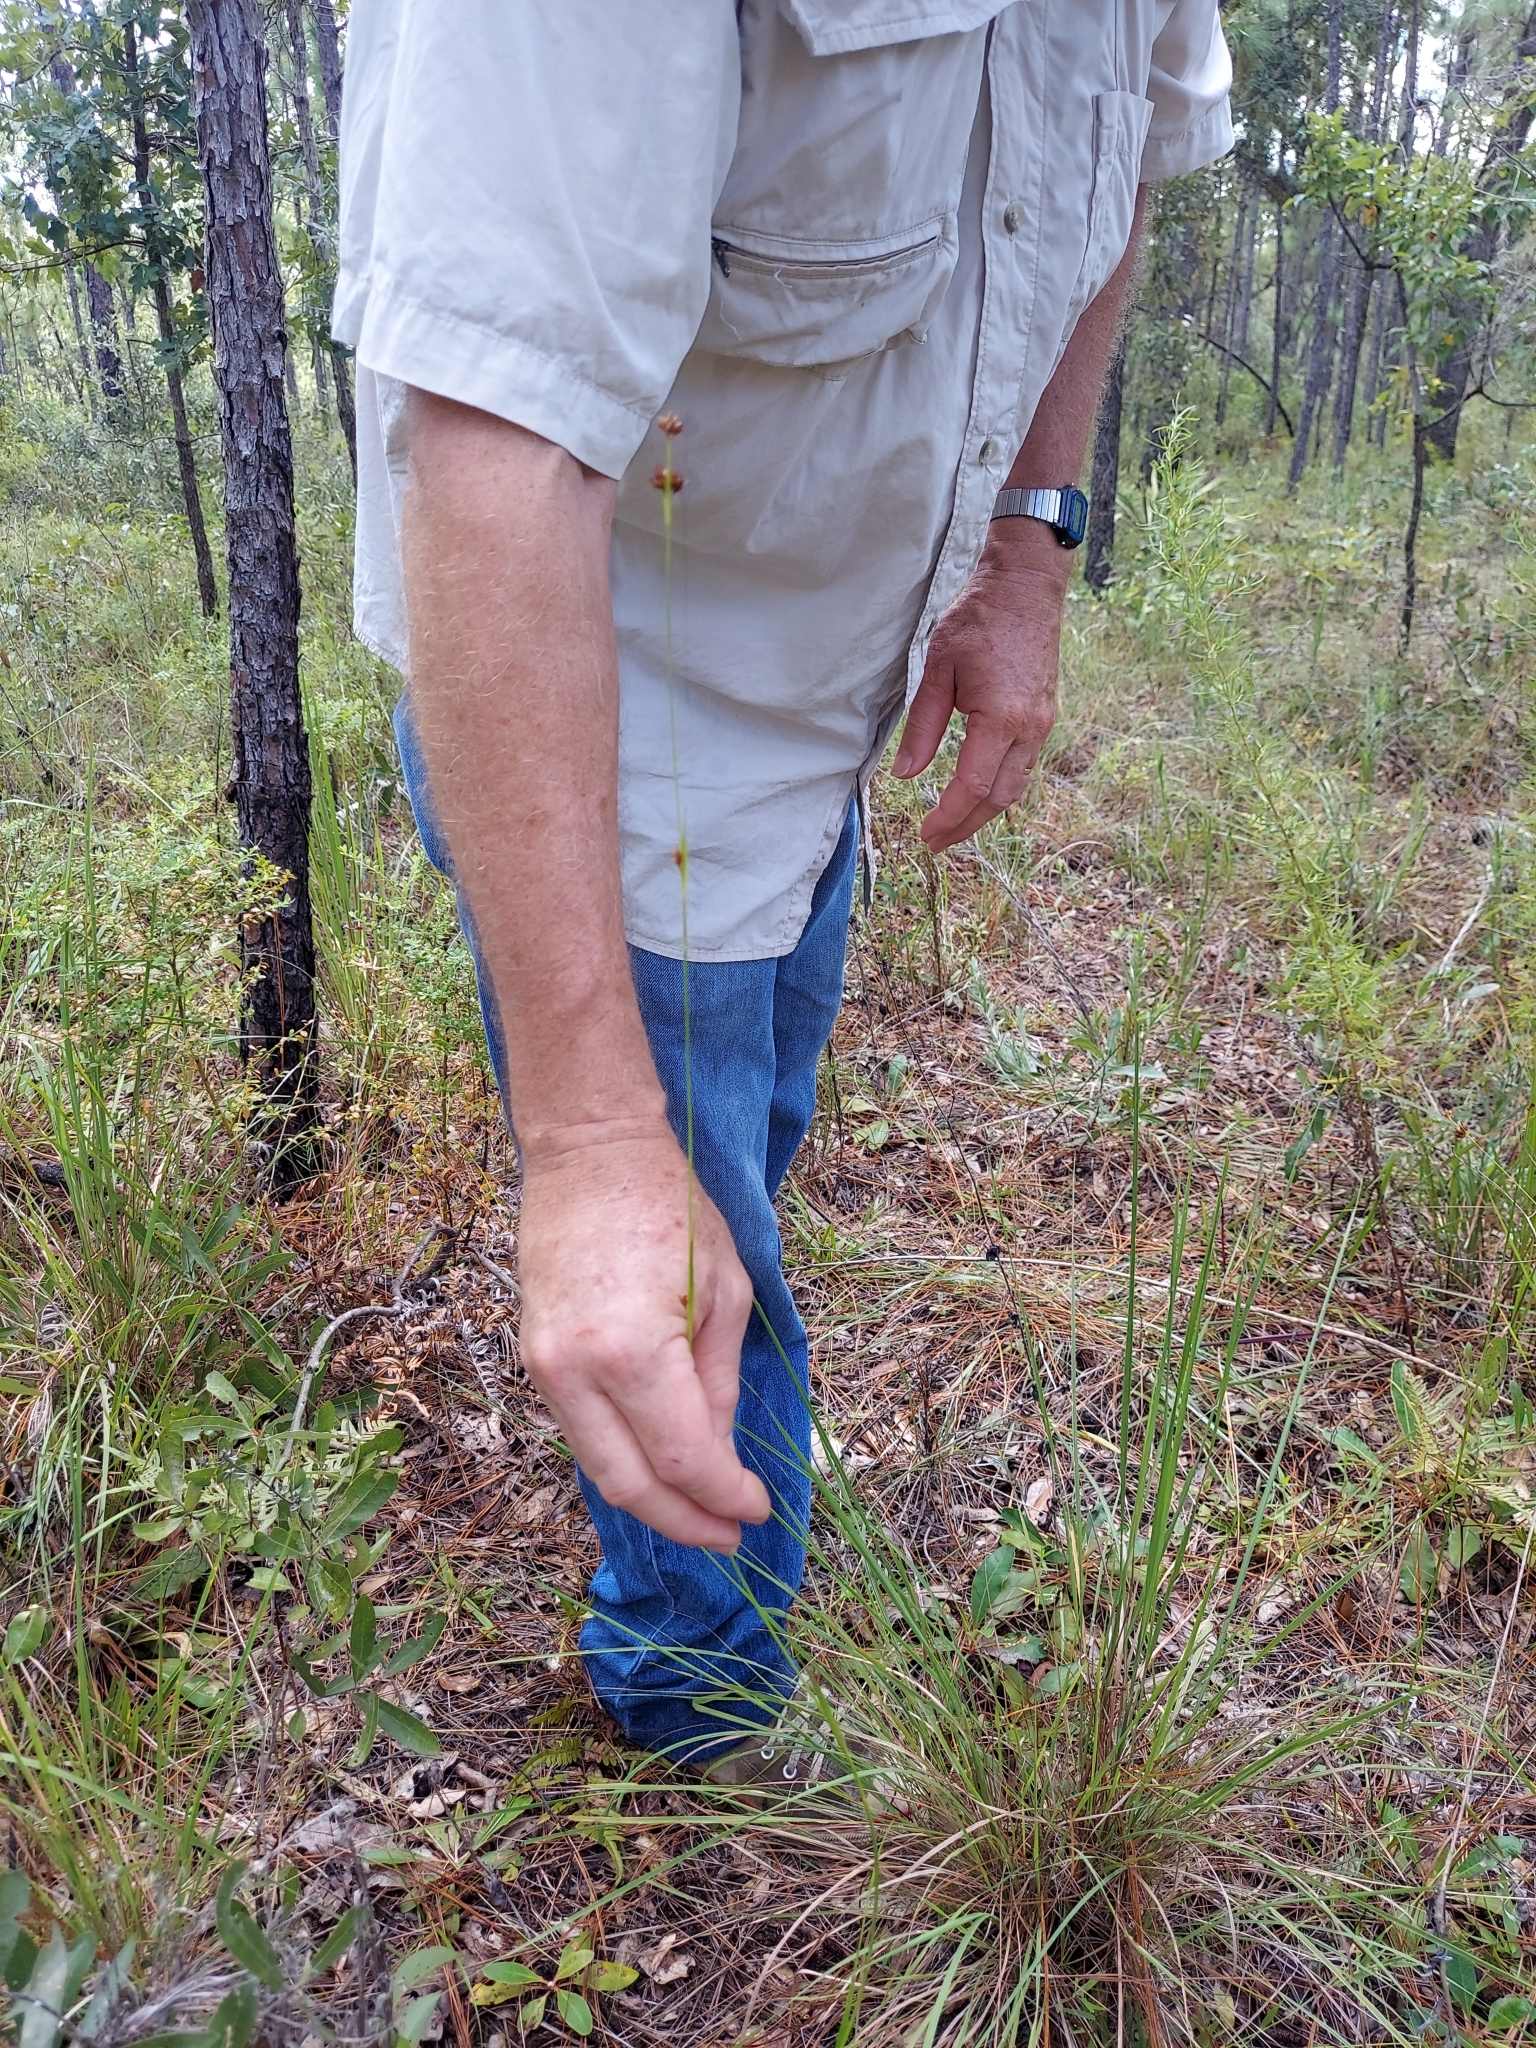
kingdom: Plantae
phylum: Tracheophyta
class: Liliopsida
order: Poales
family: Cyperaceae
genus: Rhynchospora
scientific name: Rhynchospora grayi
